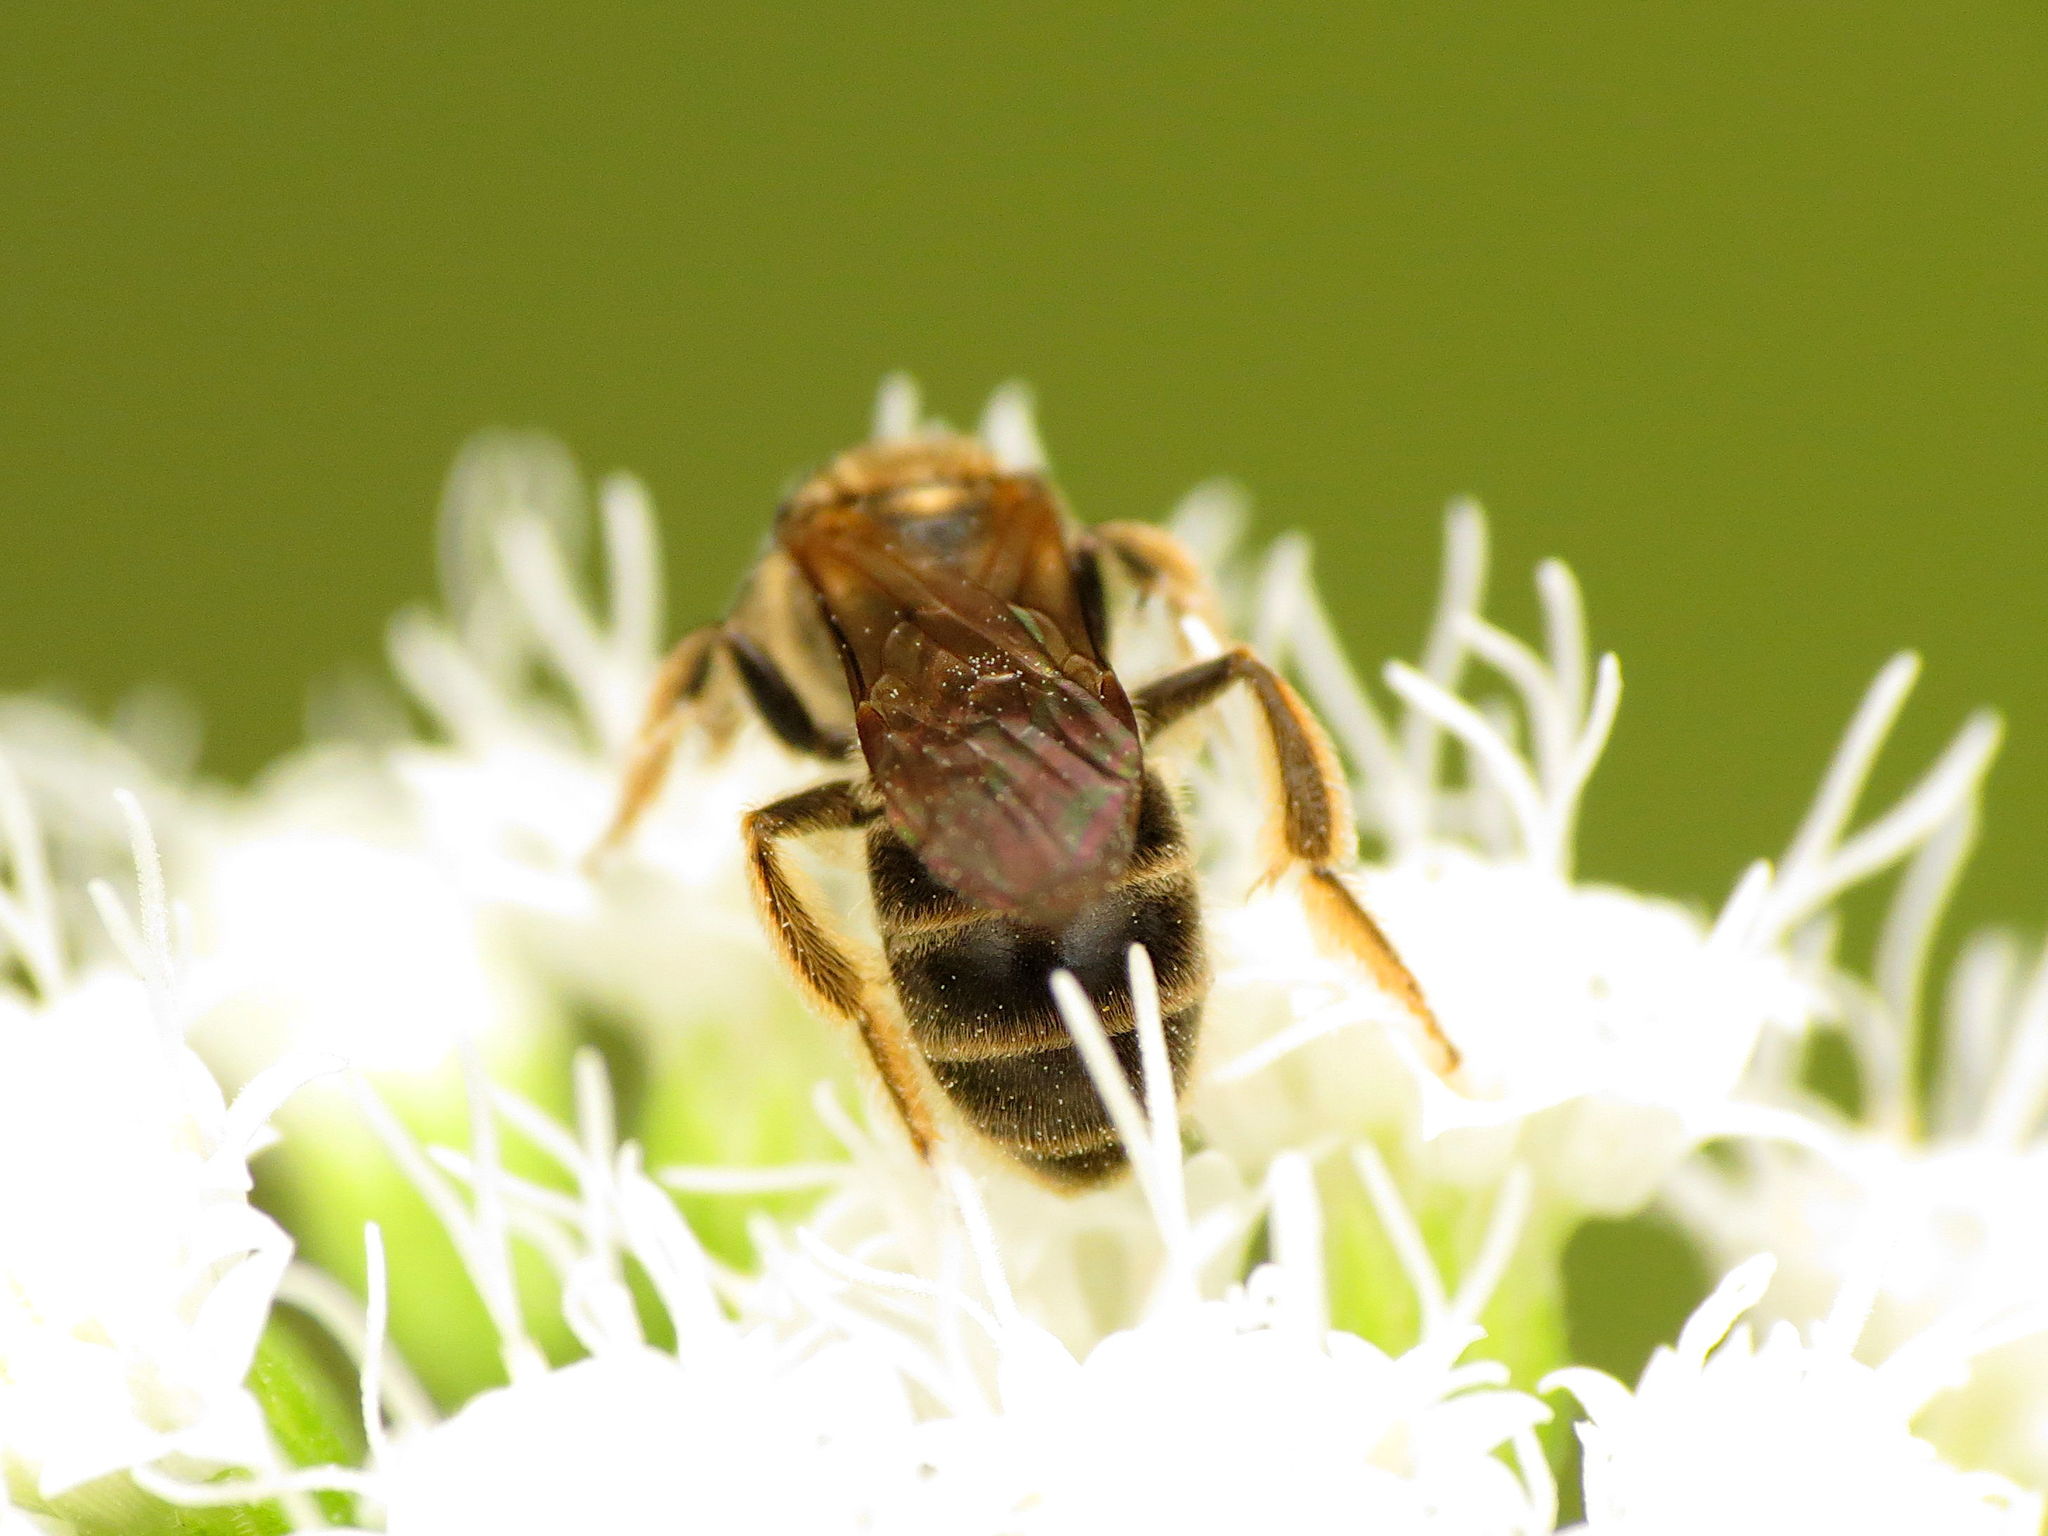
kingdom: Animalia
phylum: Arthropoda
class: Insecta
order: Hymenoptera
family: Halictidae
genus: Lasioglossum
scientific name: Lasioglossum quebecense
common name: Quebec sweat bee
